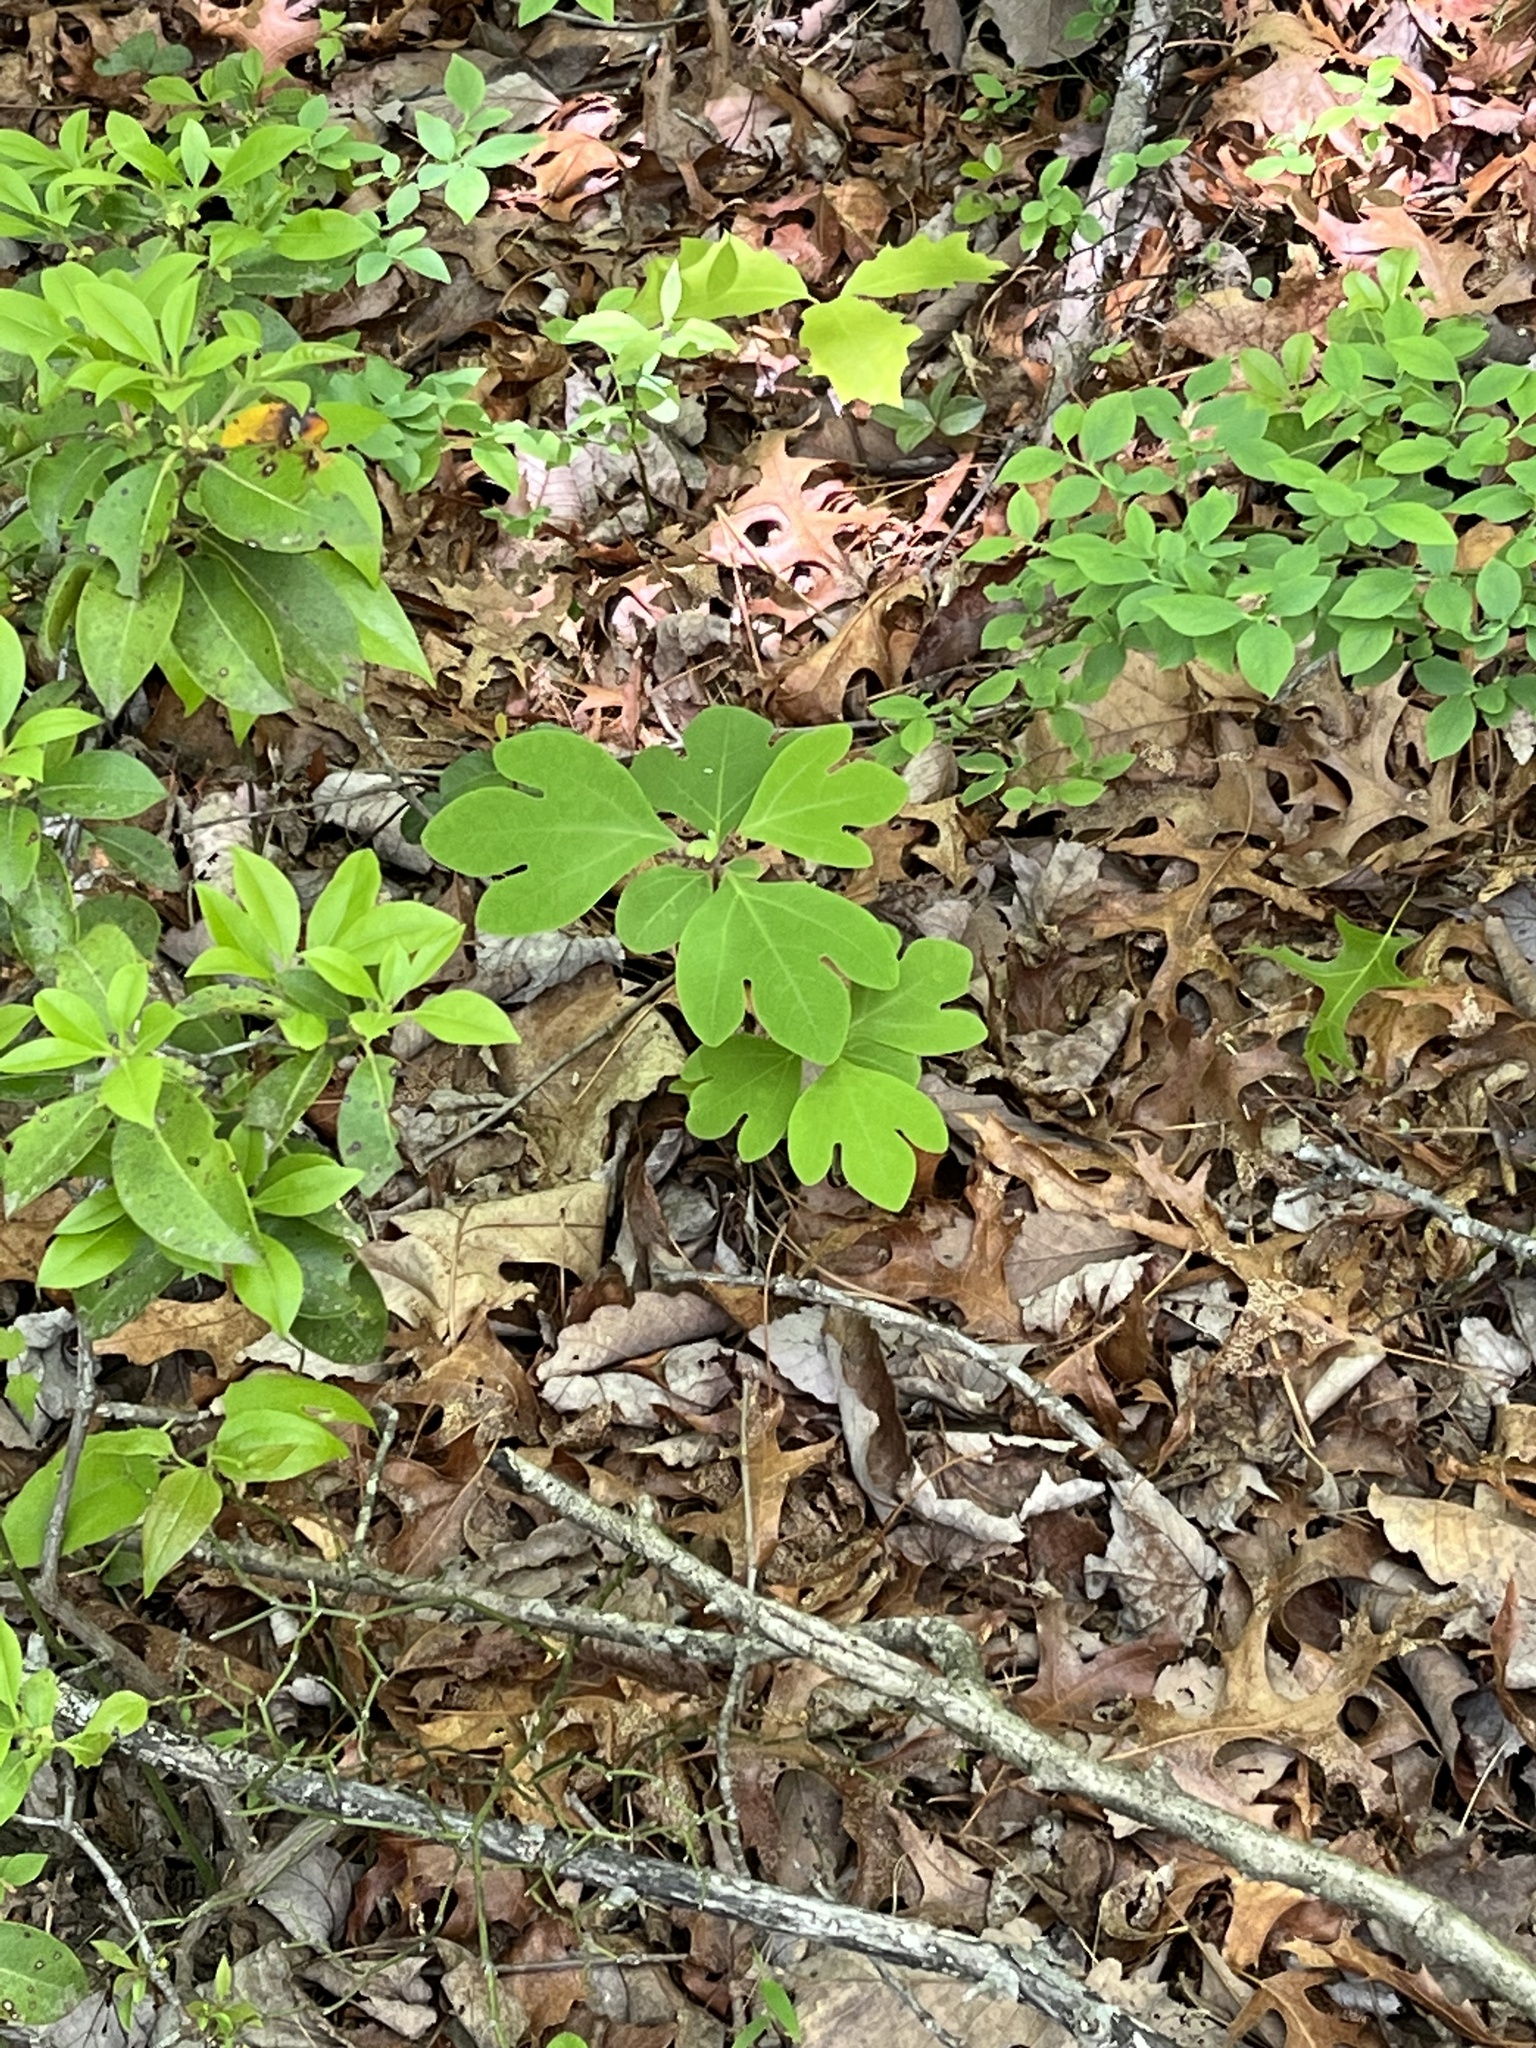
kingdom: Plantae
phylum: Tracheophyta
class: Magnoliopsida
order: Laurales
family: Lauraceae
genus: Sassafras
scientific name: Sassafras albidum
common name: Sassafras
